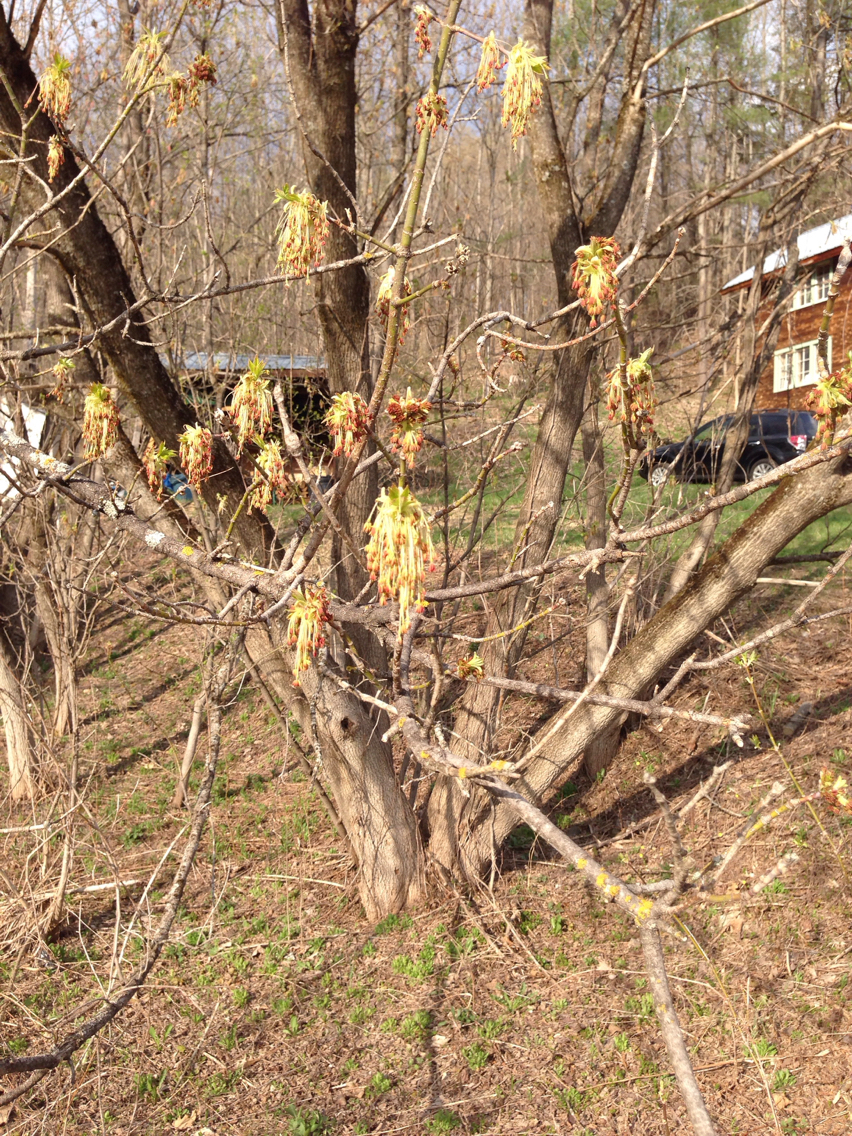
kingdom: Plantae
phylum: Tracheophyta
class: Magnoliopsida
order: Sapindales
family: Sapindaceae
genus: Acer
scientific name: Acer negundo
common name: Ashleaf maple
